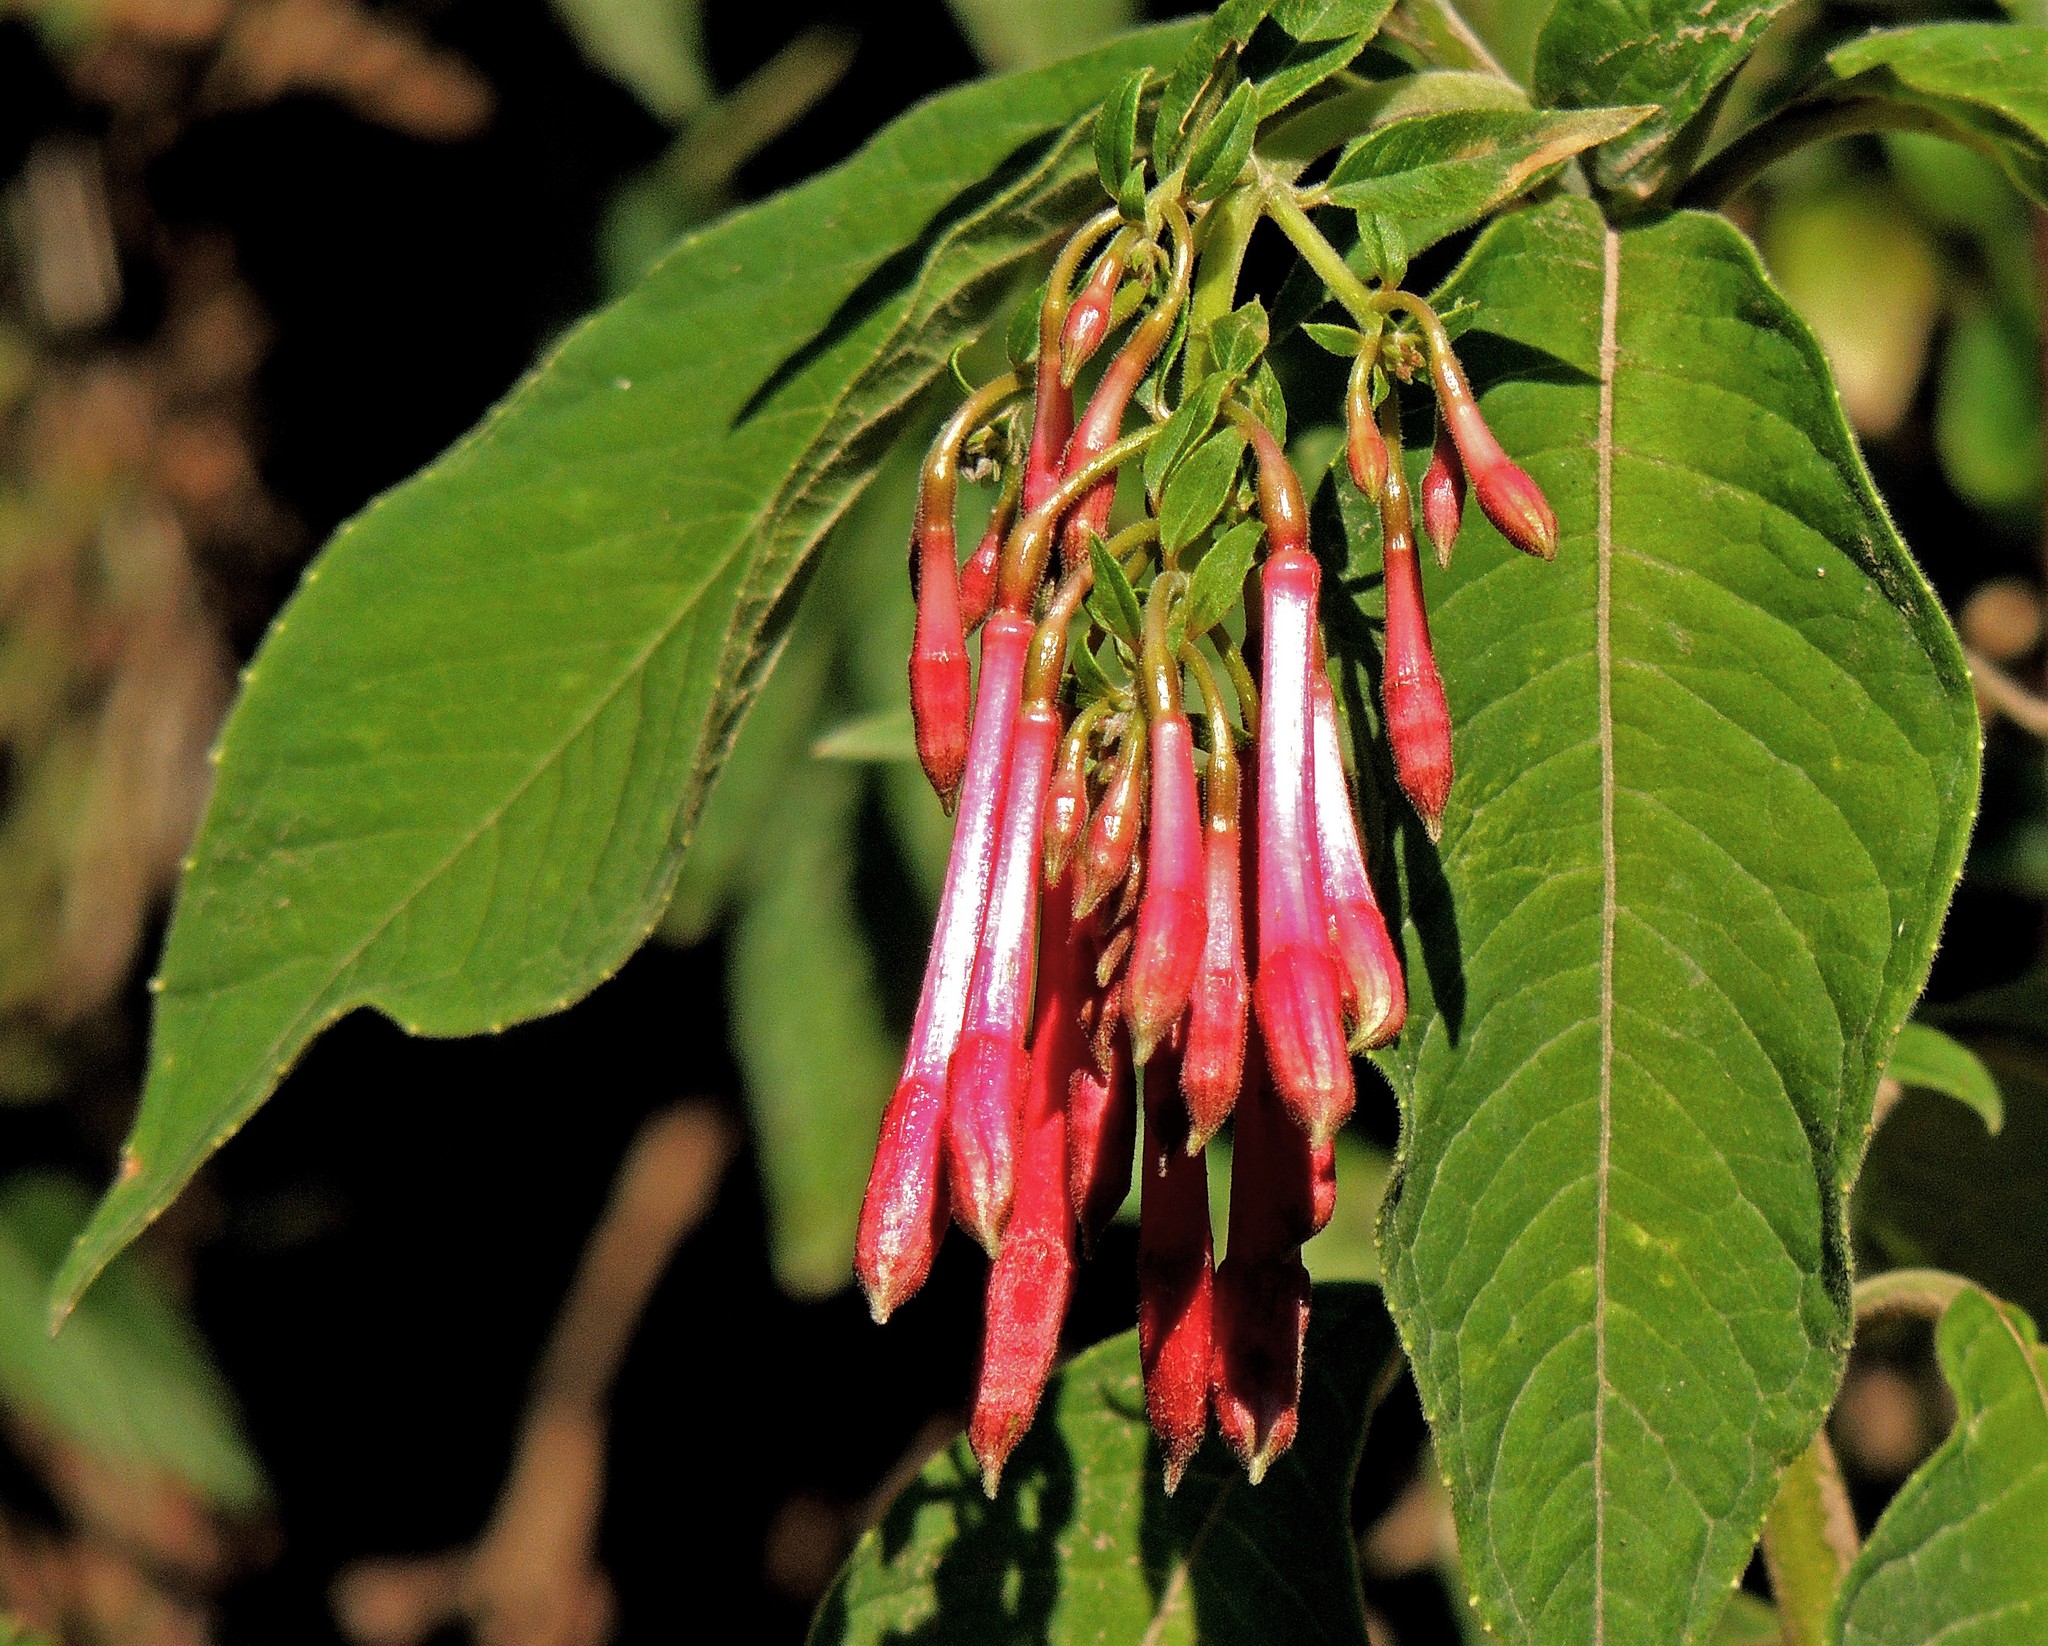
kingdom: Plantae
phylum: Tracheophyta
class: Magnoliopsida
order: Myrtales
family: Onagraceae
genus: Fuchsia
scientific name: Fuchsia boliviana
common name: Bolivian fuchsia
